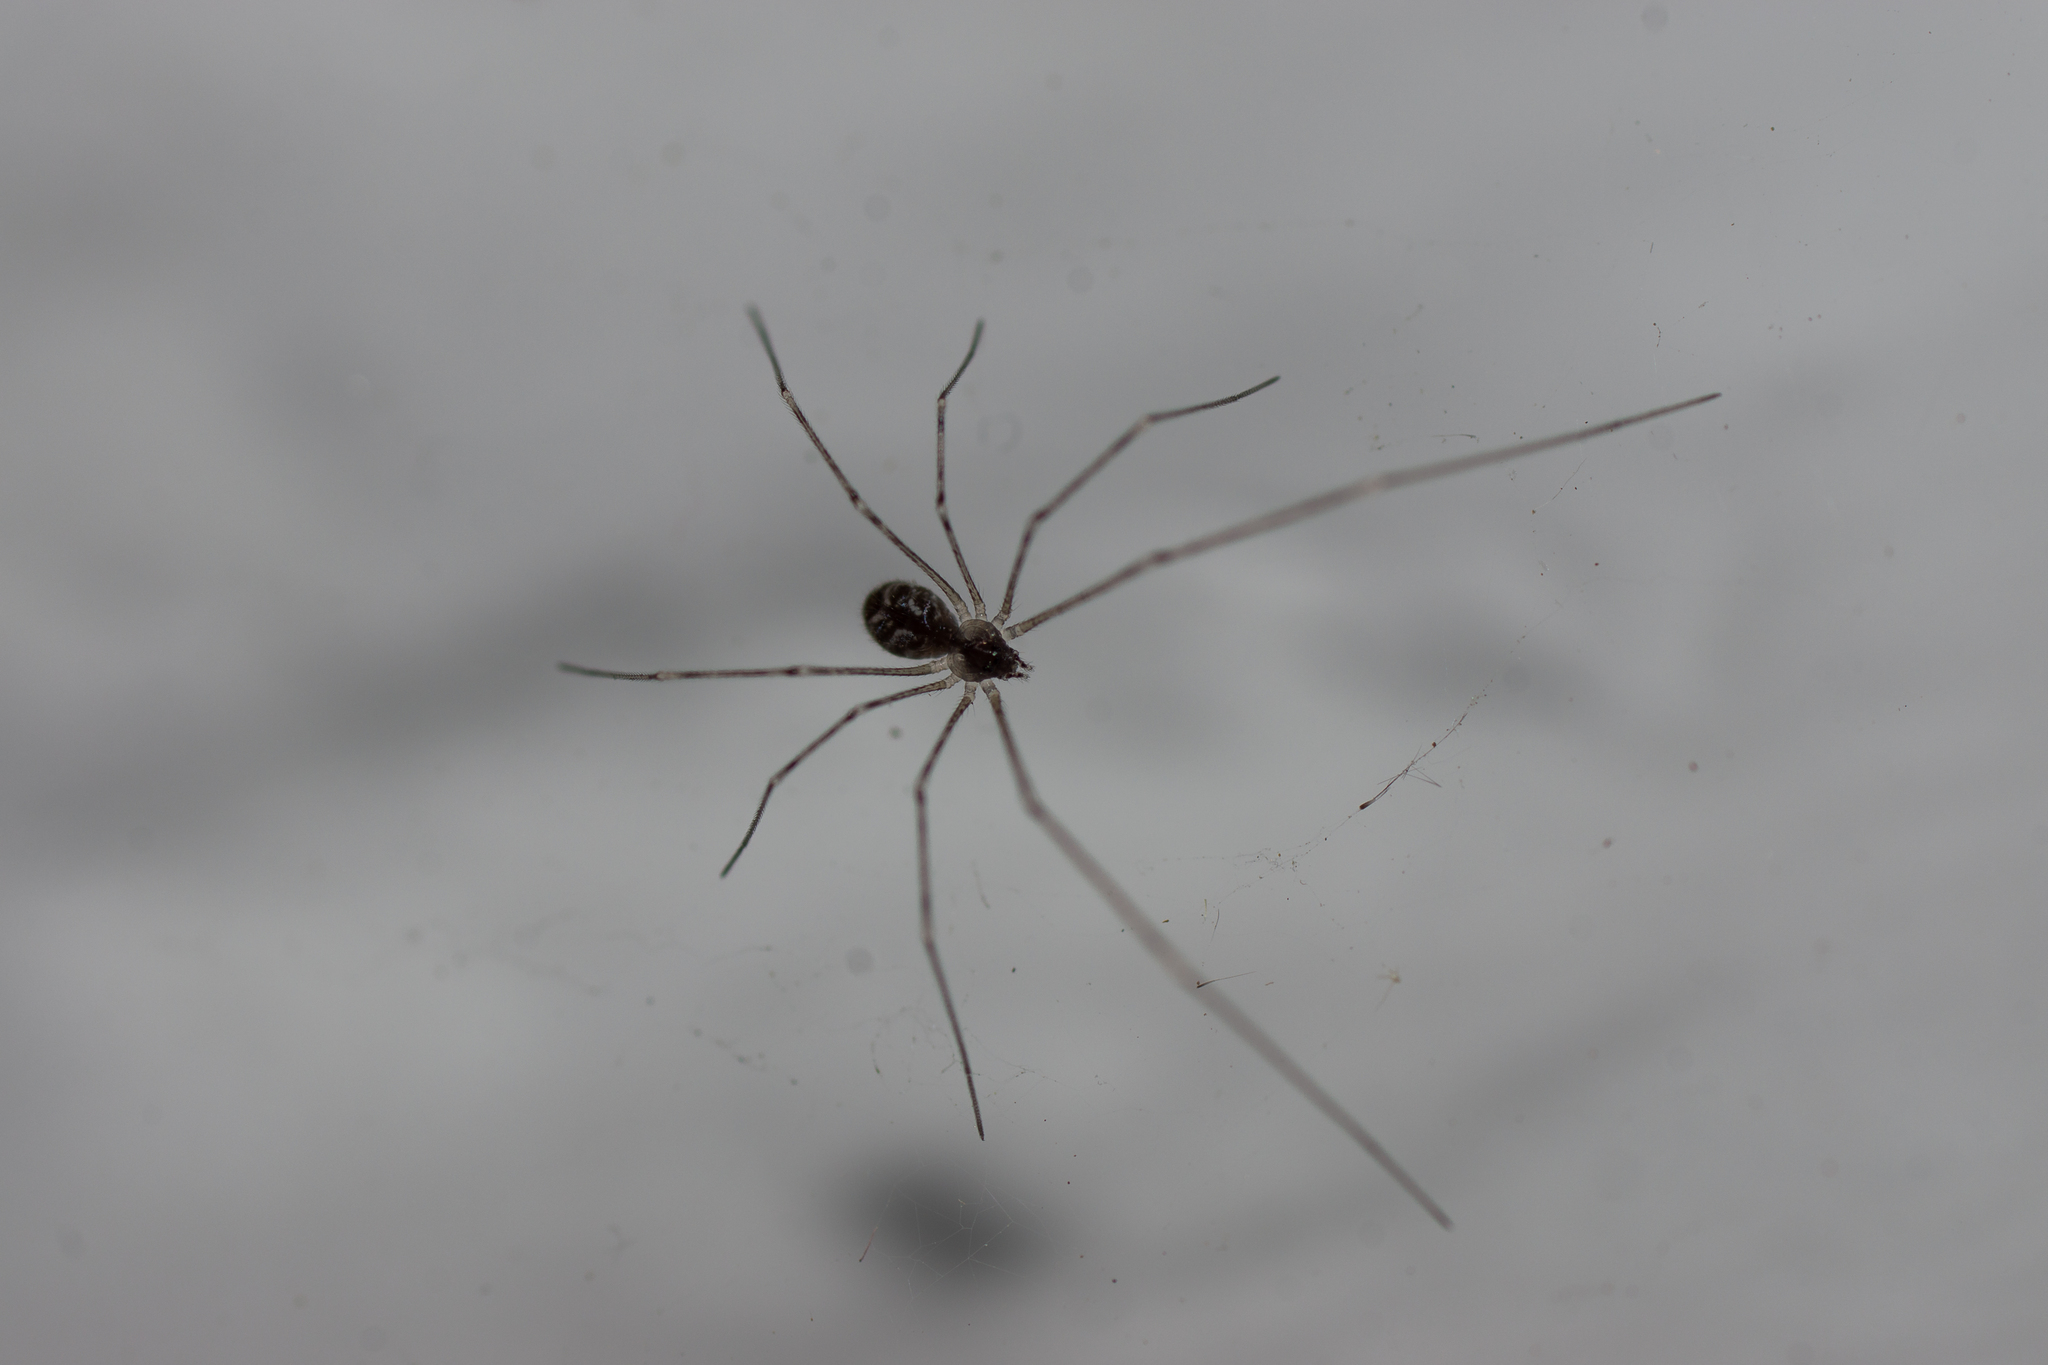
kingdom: Animalia
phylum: Arthropoda
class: Arachnida
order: Araneae
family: Pholcidae
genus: Holocnemus
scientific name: Holocnemus pluchei
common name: Marbled cellar spider
